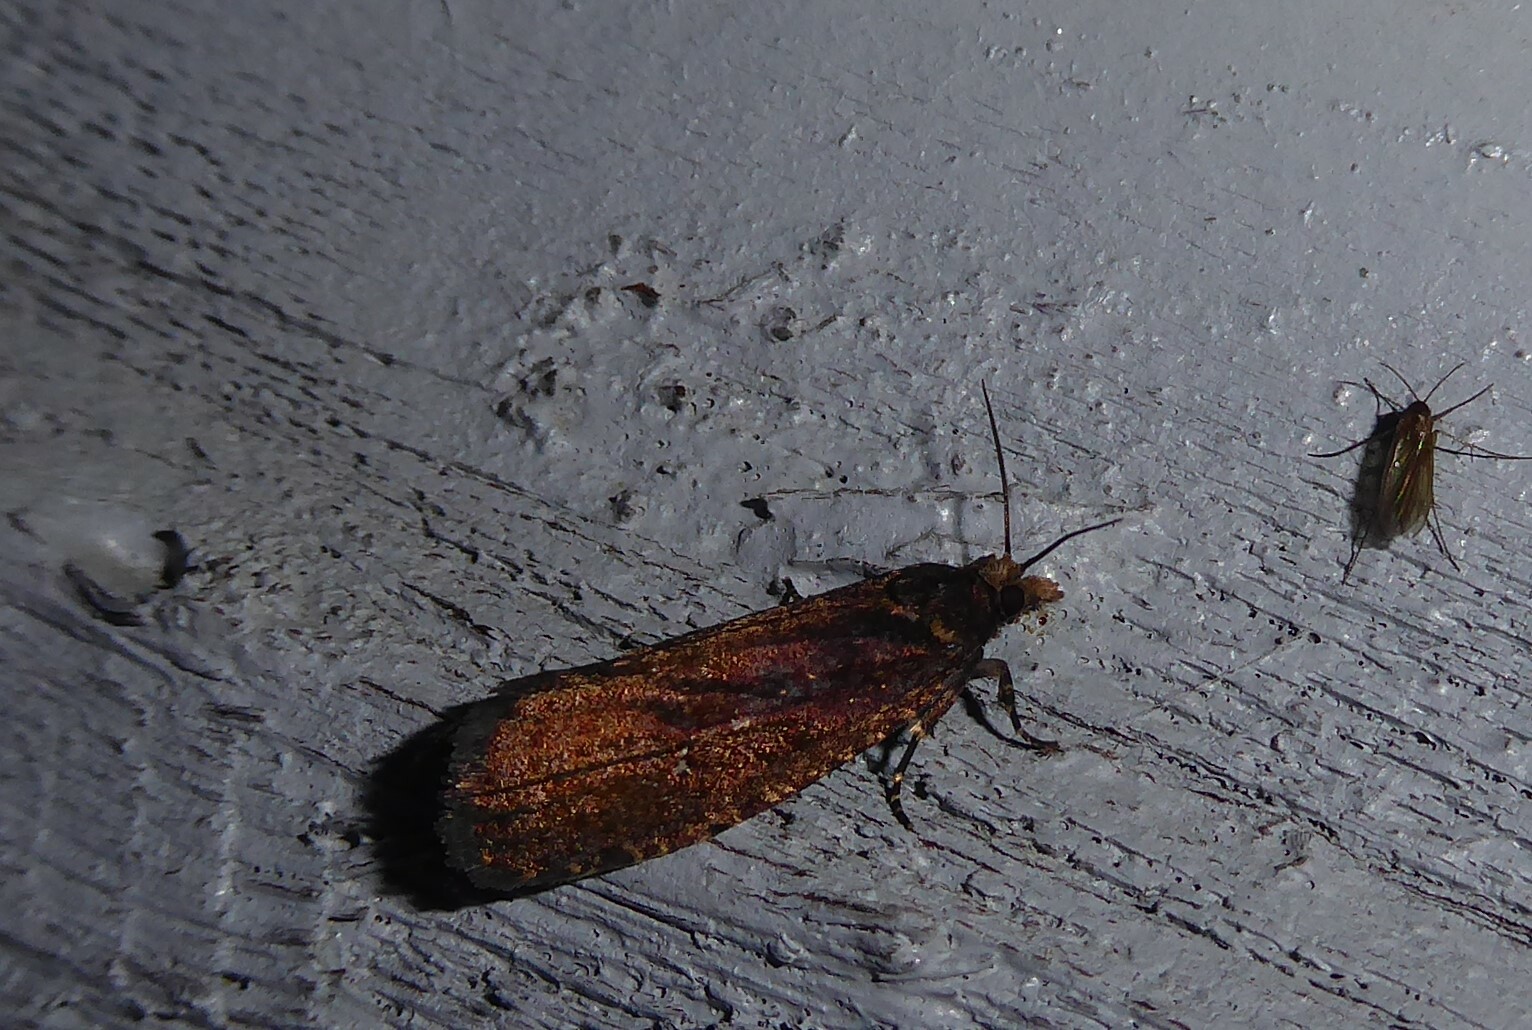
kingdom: Animalia
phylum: Arthropoda
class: Insecta
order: Lepidoptera
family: Tortricidae
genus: Cryptaspasma
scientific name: Cryptaspasma querula
